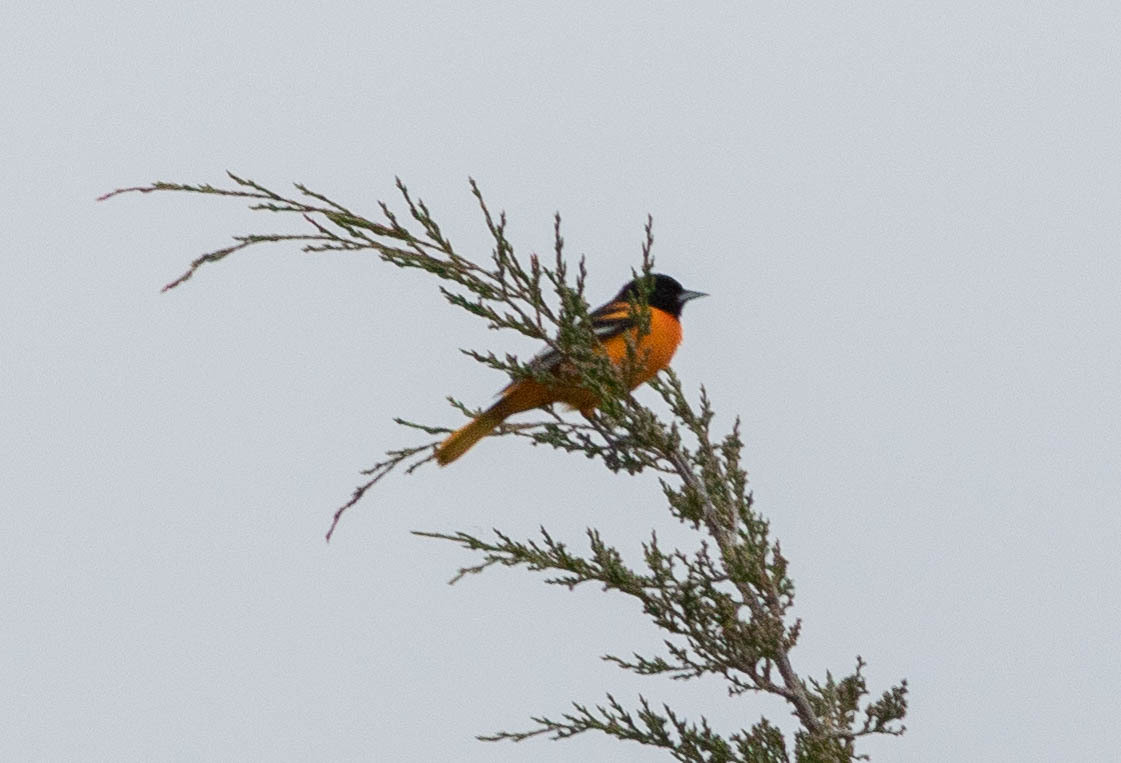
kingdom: Animalia
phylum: Chordata
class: Aves
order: Passeriformes
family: Icteridae
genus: Icterus
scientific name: Icterus galbula
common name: Baltimore oriole
